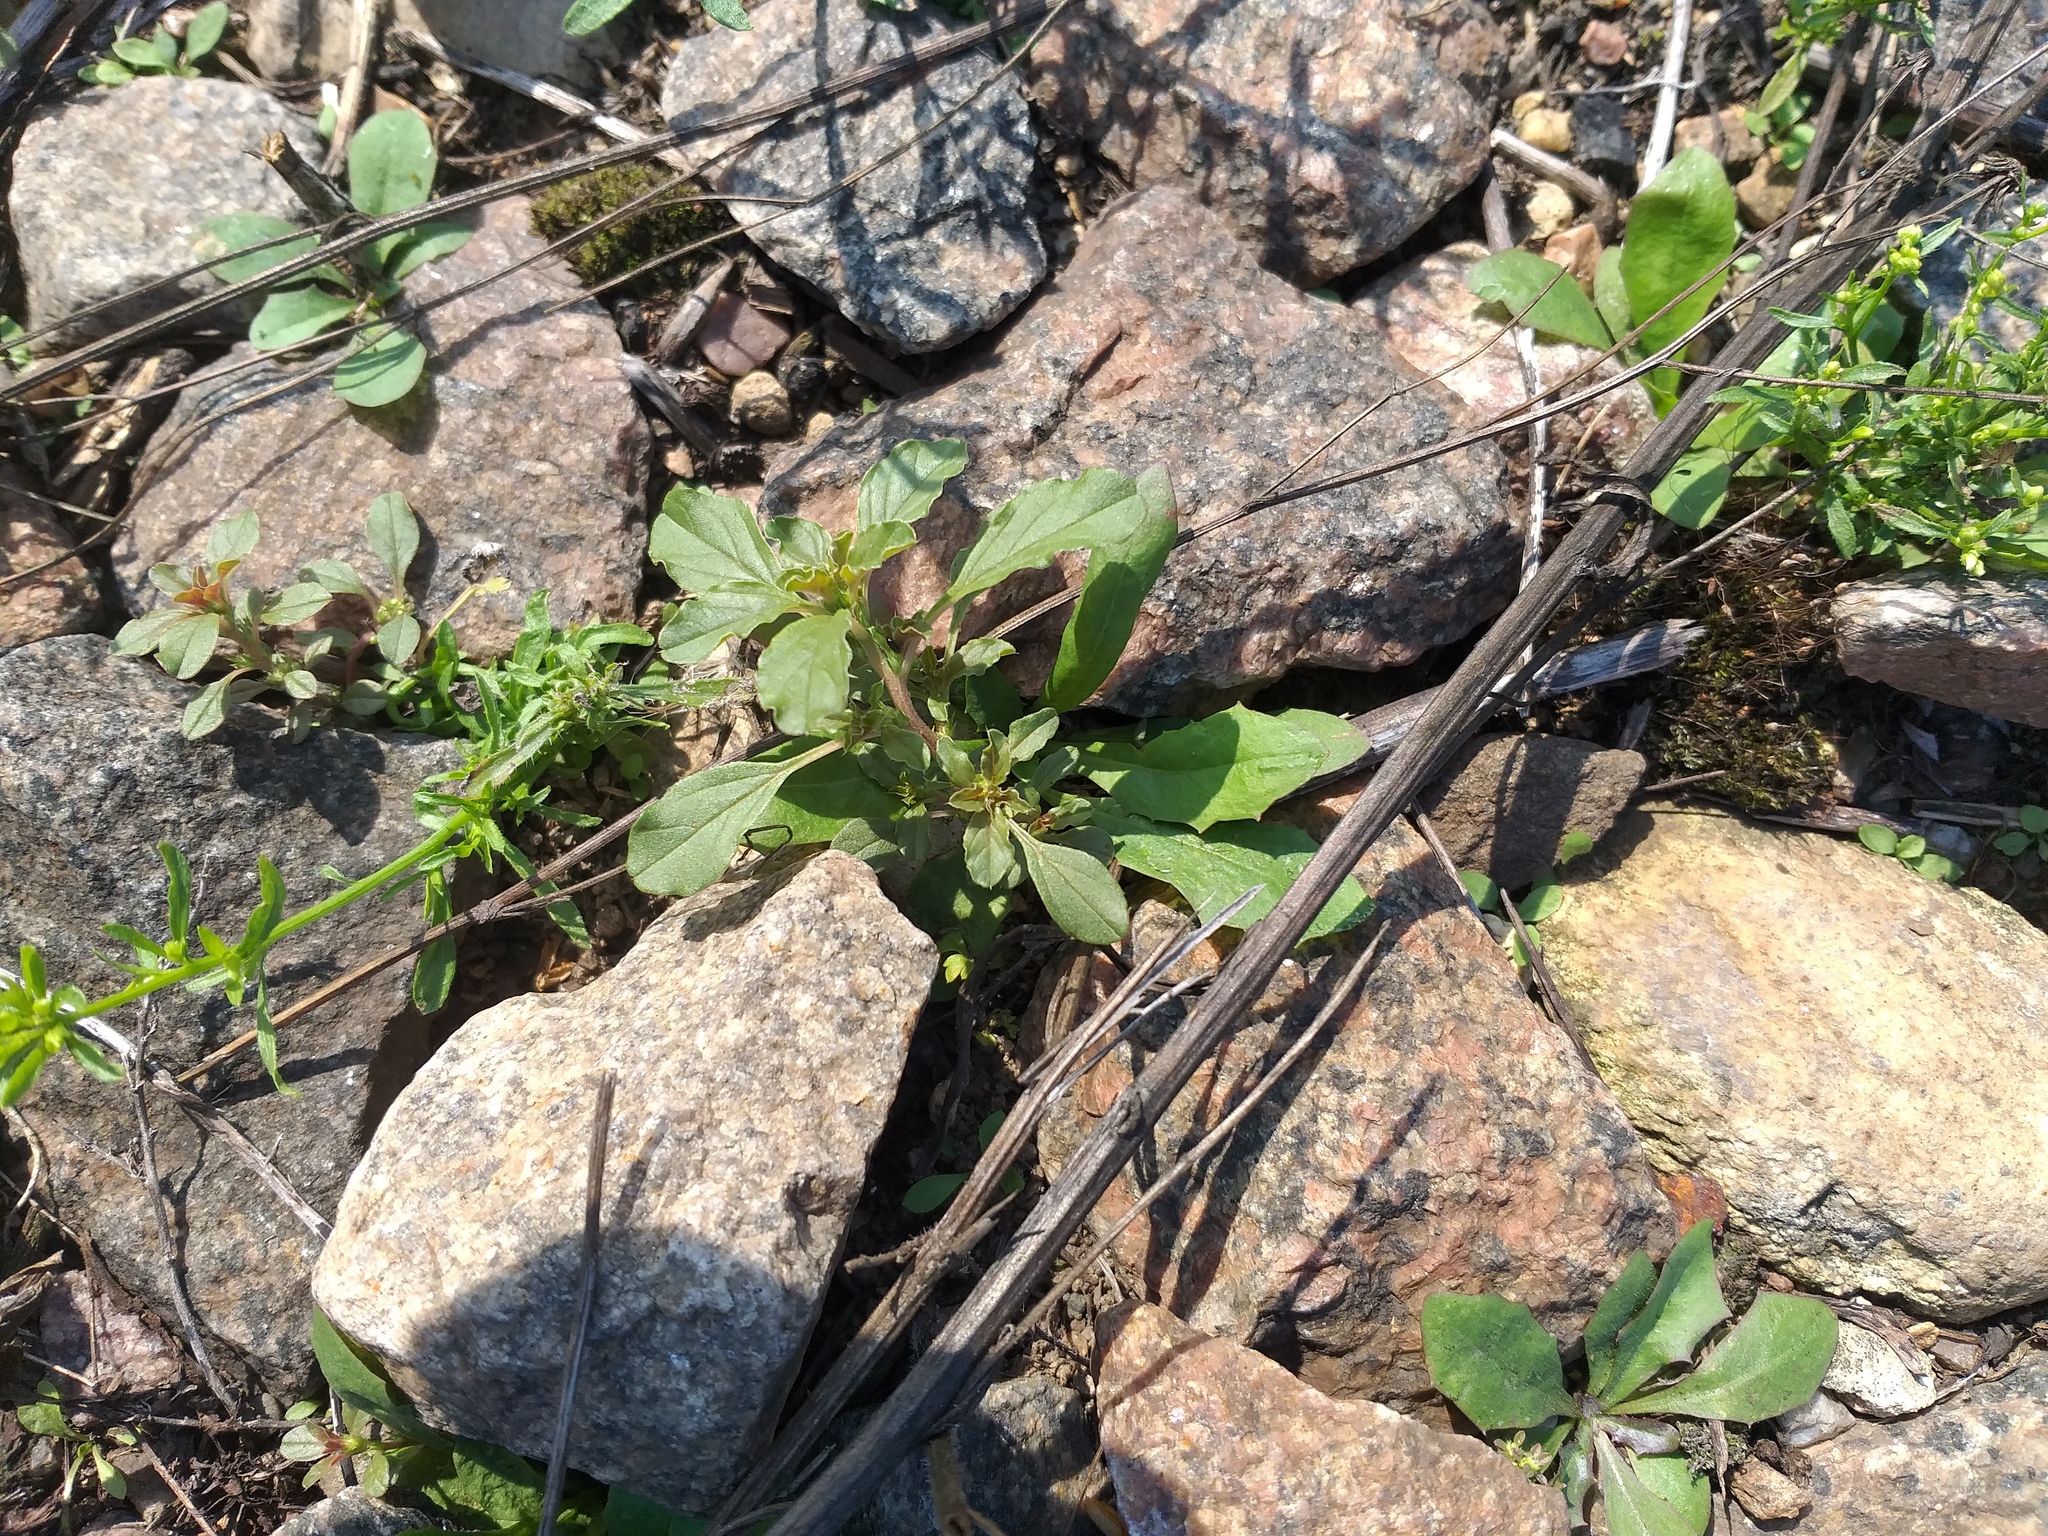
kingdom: Plantae
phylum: Tracheophyta
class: Magnoliopsida
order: Caryophyllales
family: Amaranthaceae
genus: Amaranthus
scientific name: Amaranthus albus
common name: White pigweed
